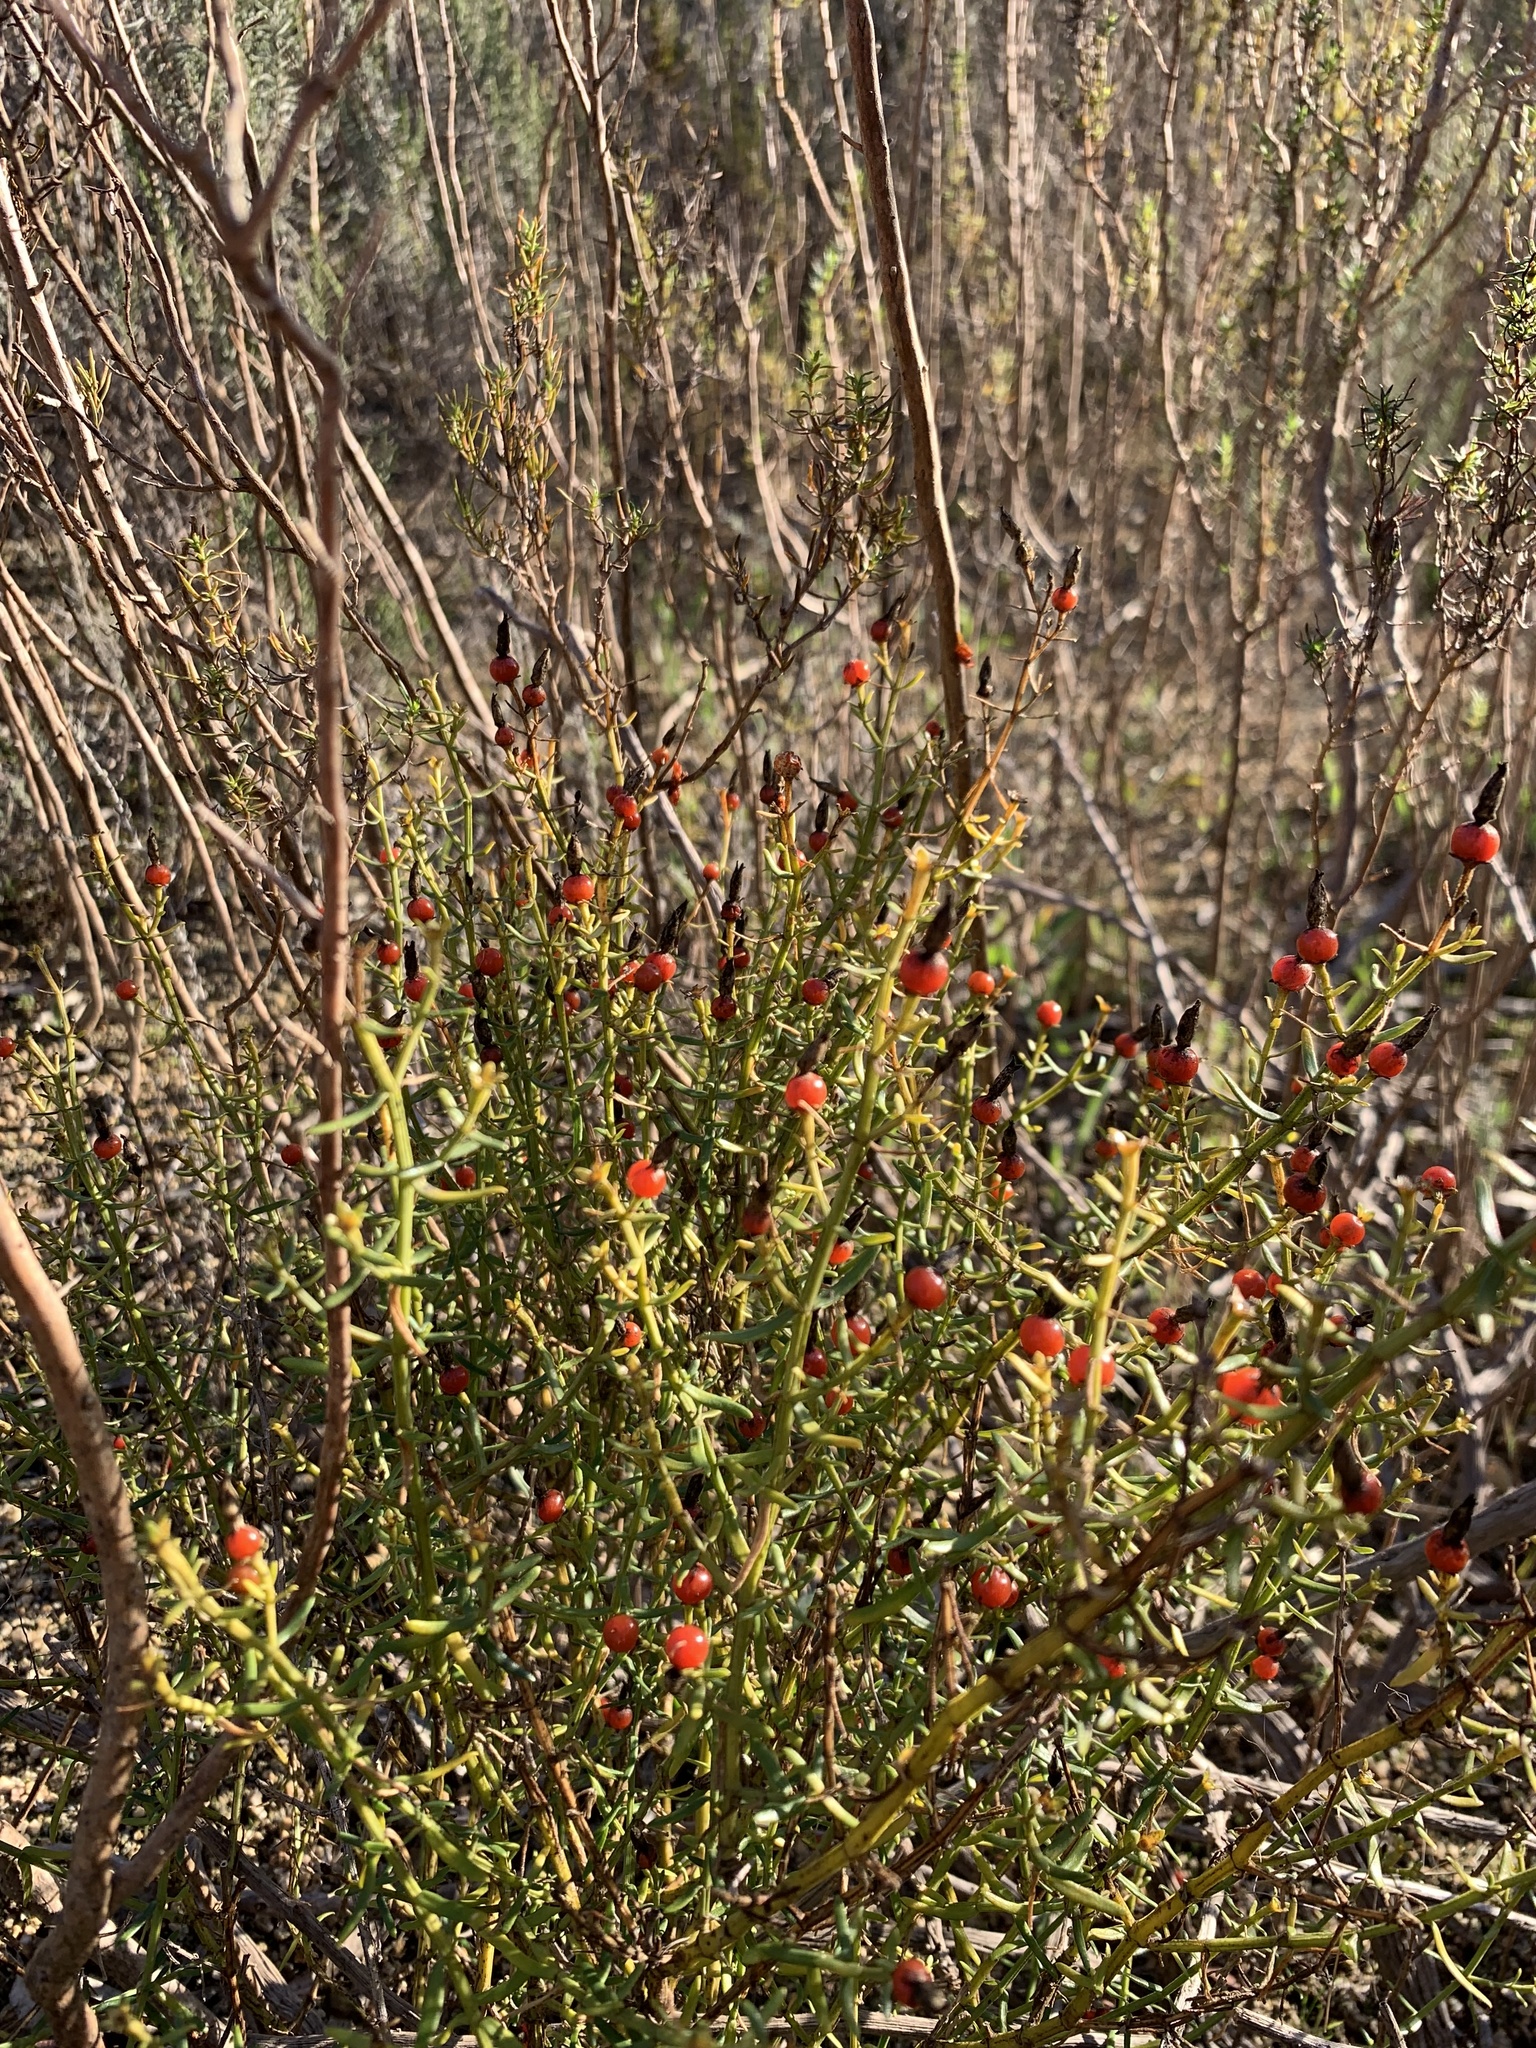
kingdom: Plantae
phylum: Tracheophyta
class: Magnoliopsida
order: Gentianales
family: Gentianaceae
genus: Chironia
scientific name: Chironia baccifera
